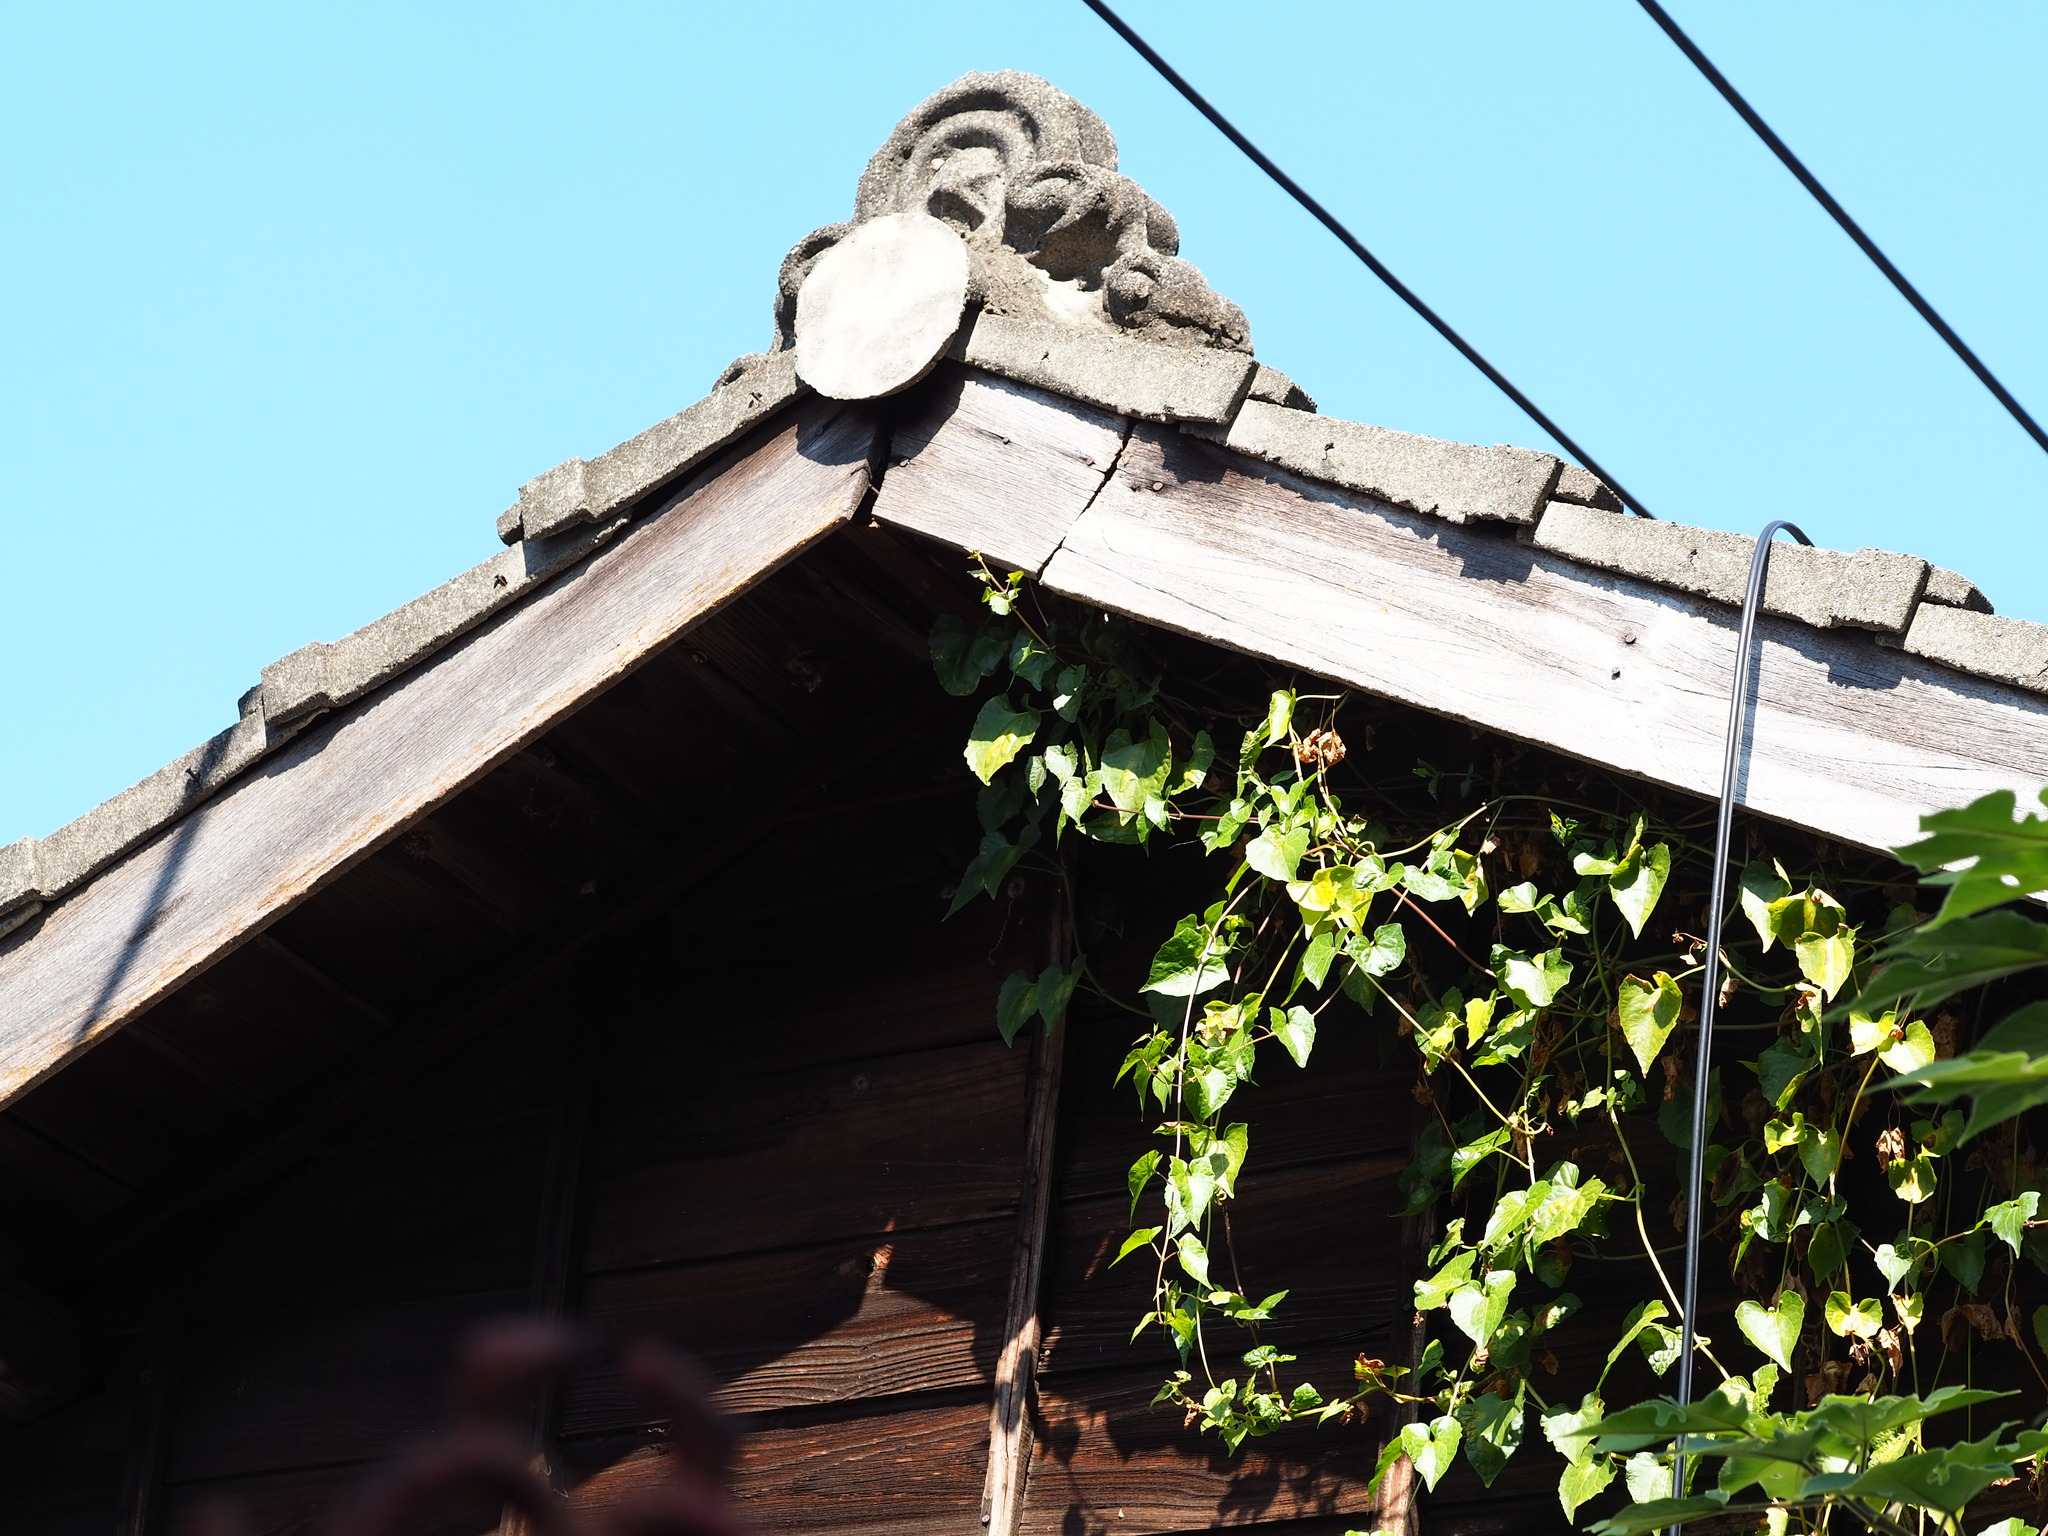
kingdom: Plantae
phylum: Tracheophyta
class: Magnoliopsida
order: Asterales
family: Asteraceae
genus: Mikania
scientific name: Mikania micrantha
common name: Mile-a-minute
